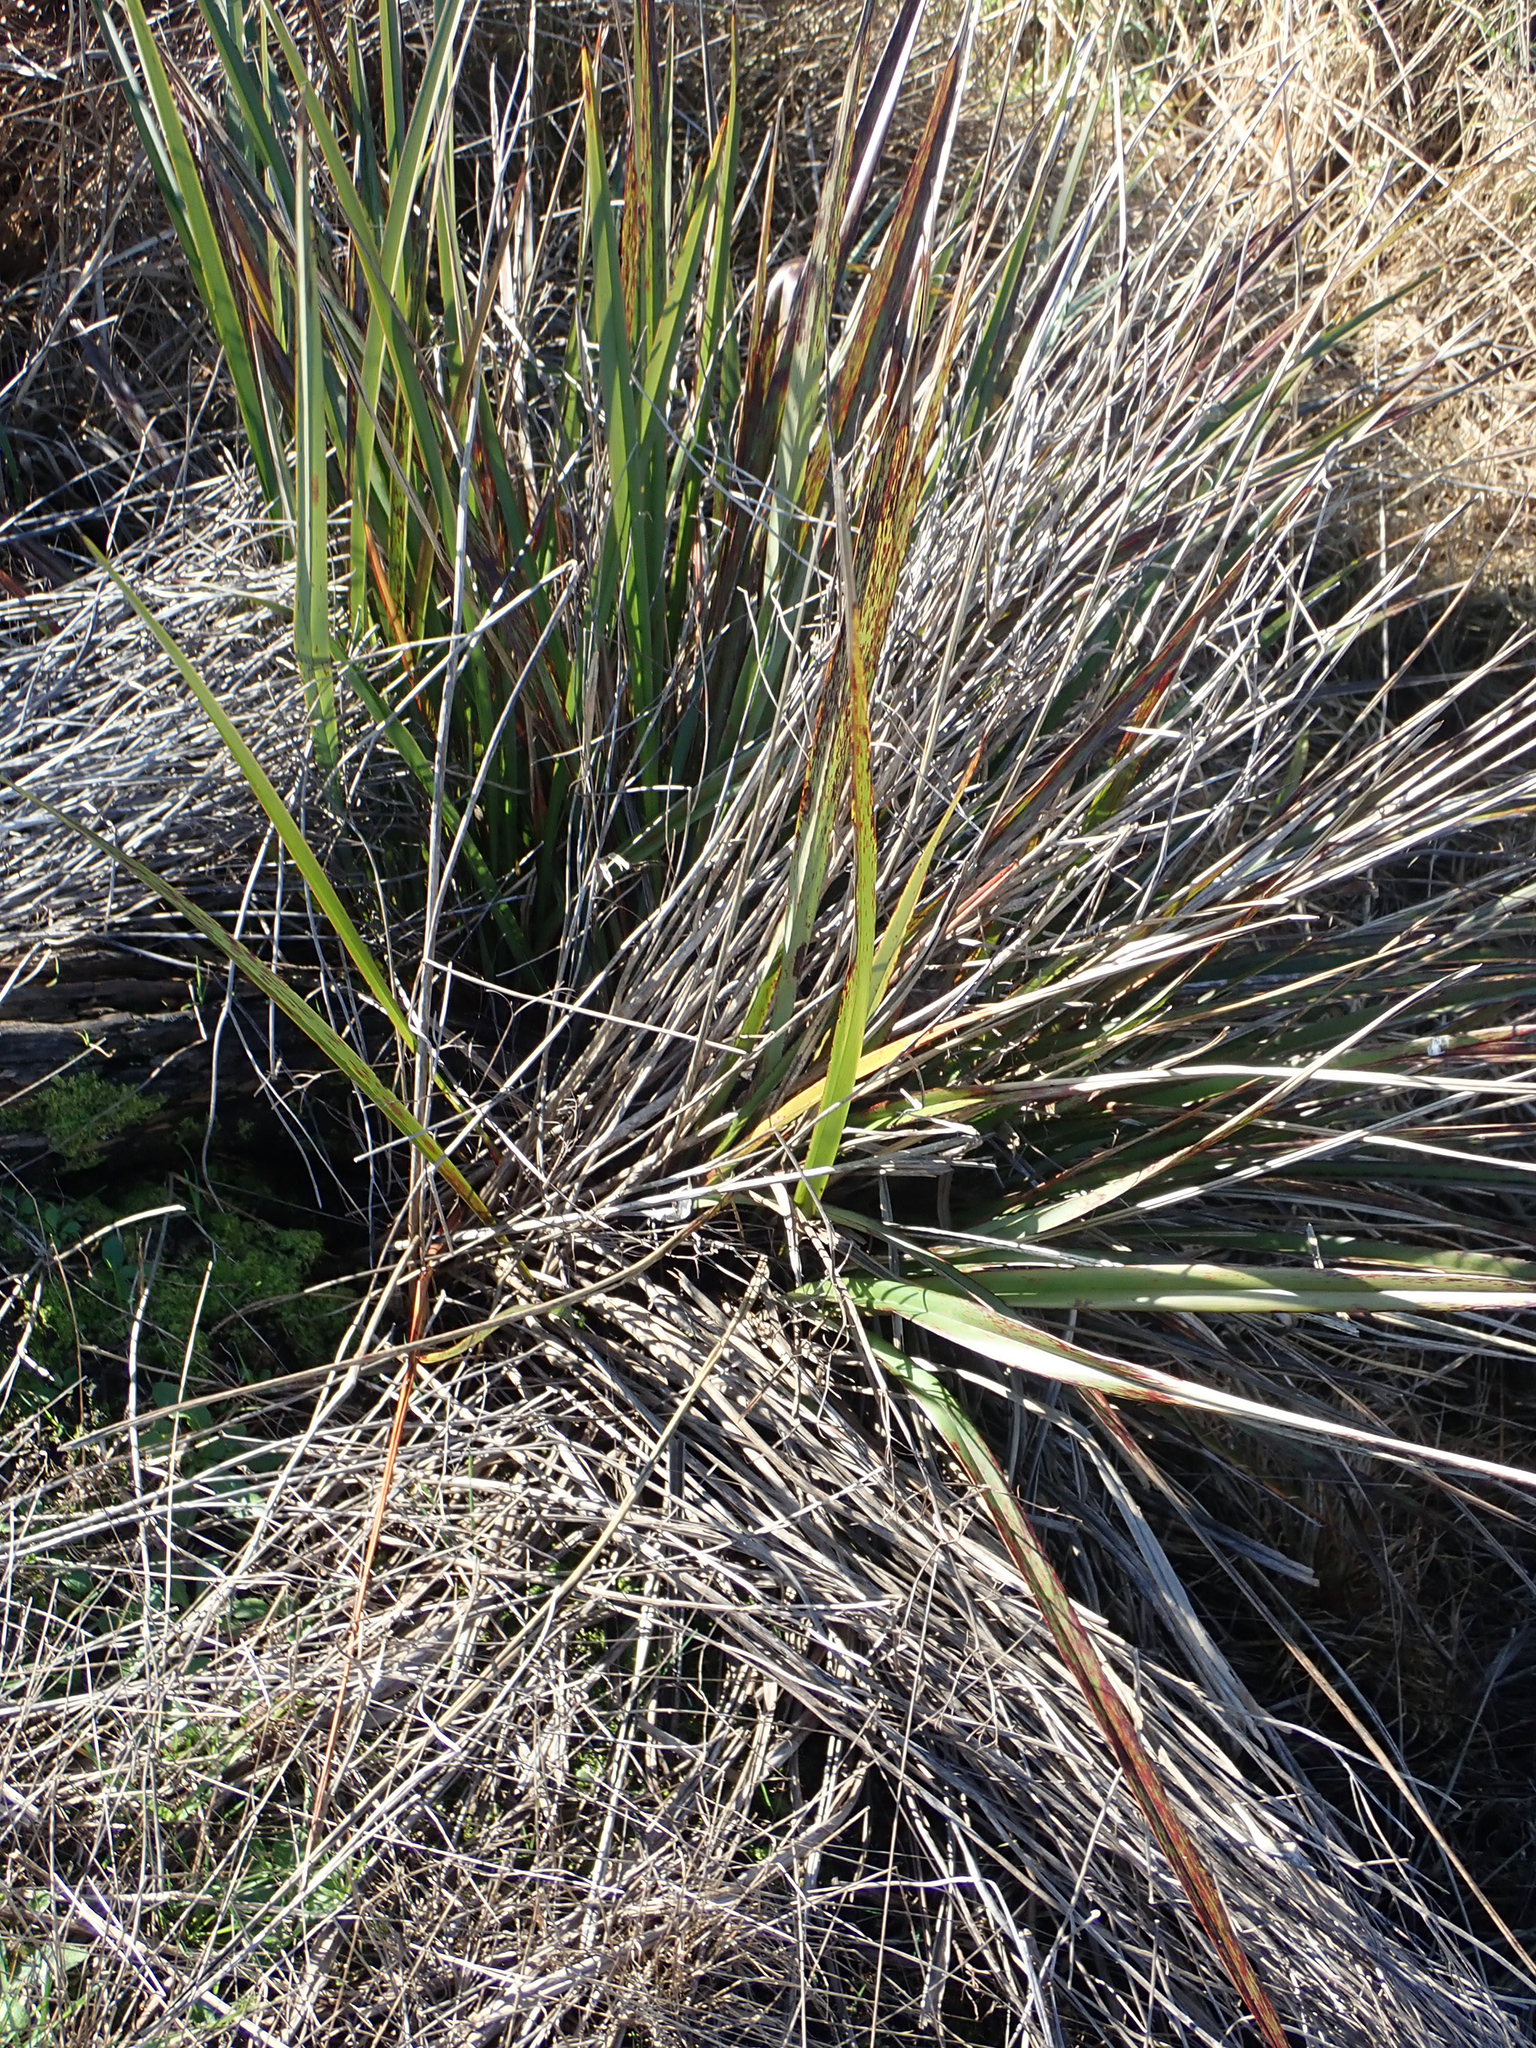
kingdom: Plantae
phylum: Tracheophyta
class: Liliopsida
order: Asparagales
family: Asphodelaceae
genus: Dianella
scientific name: Dianella haematica
